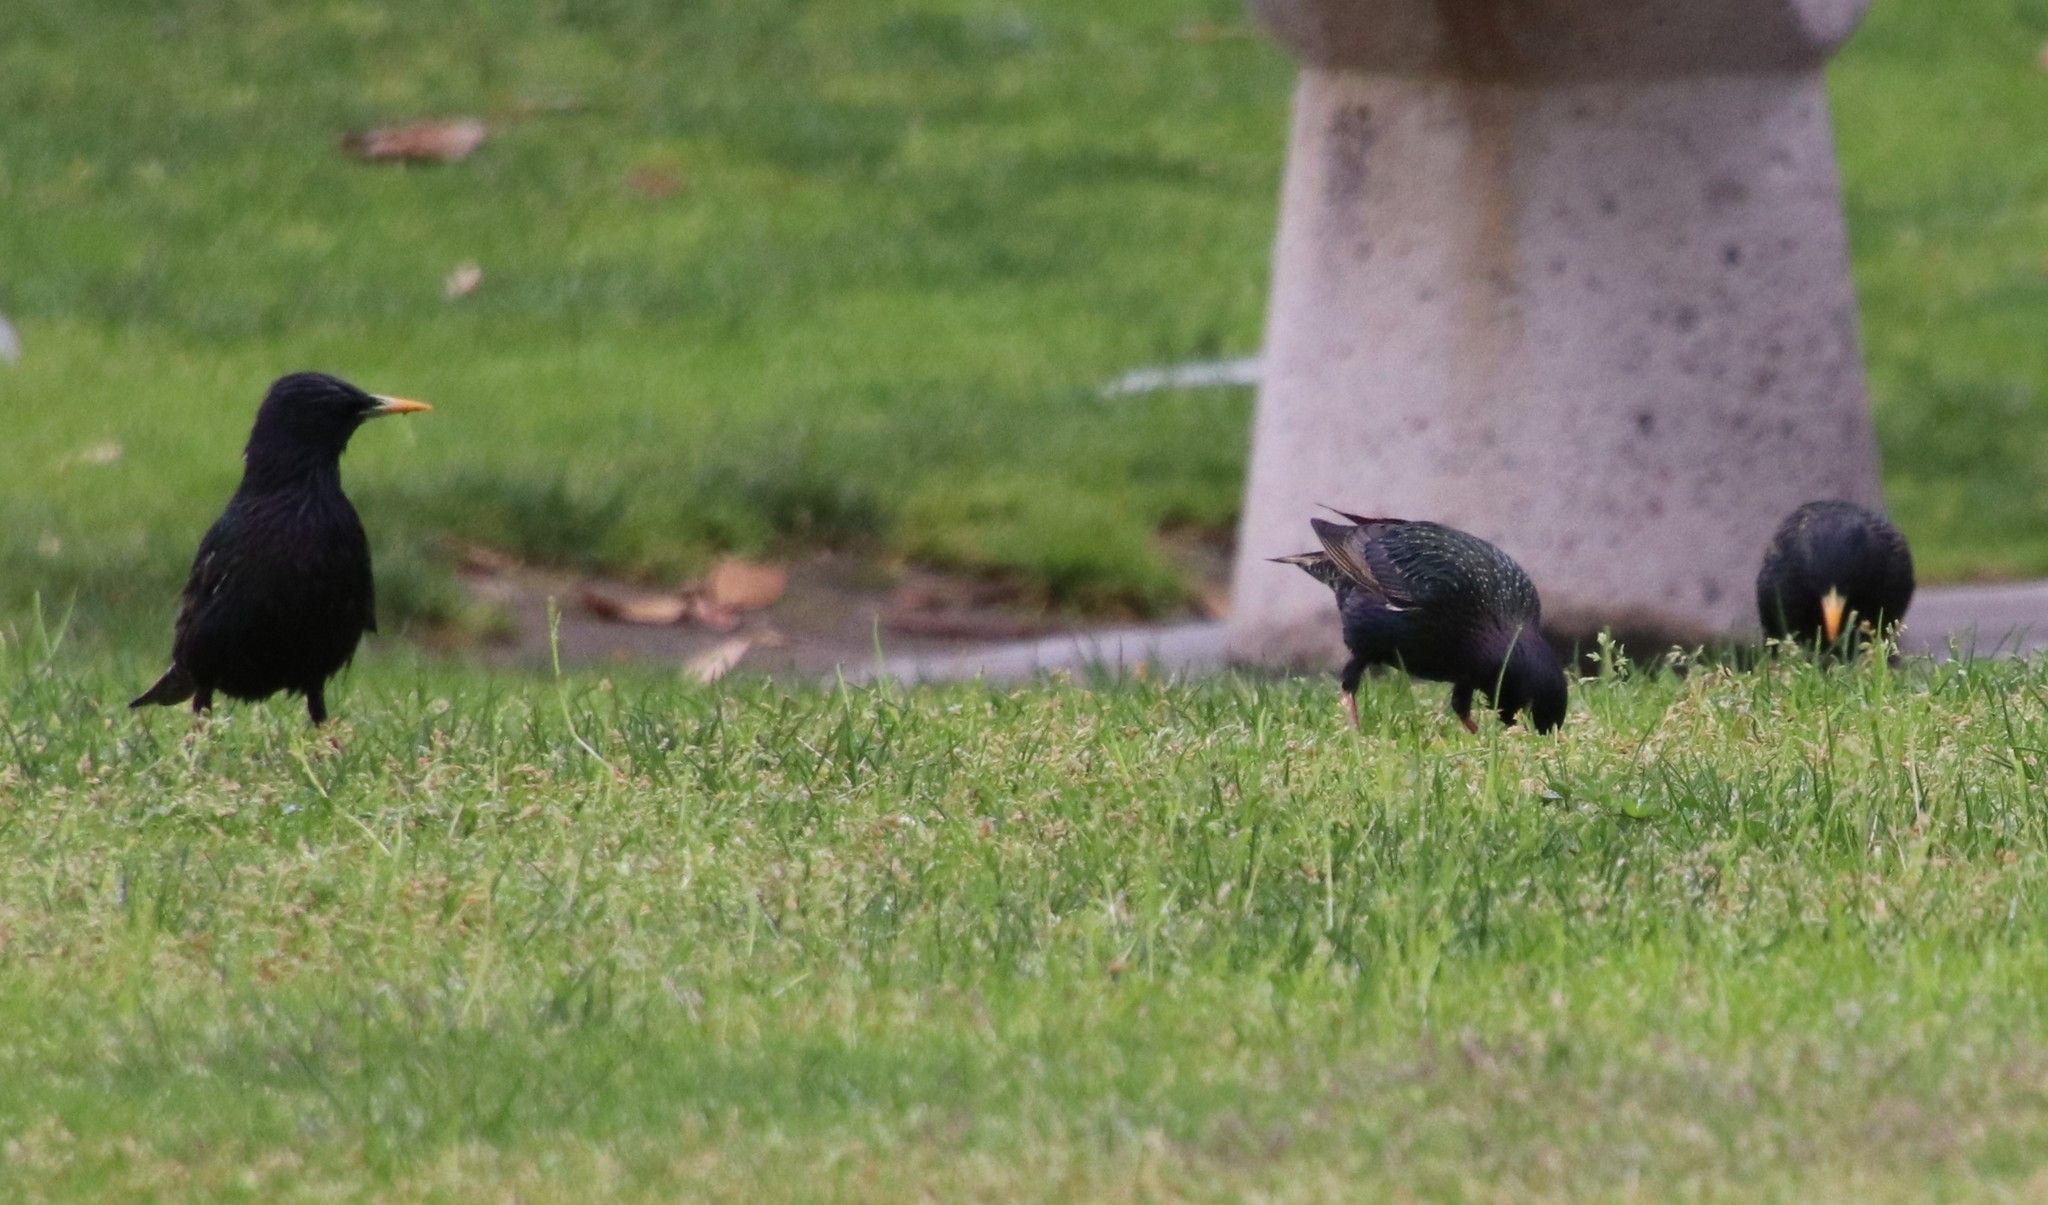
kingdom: Animalia
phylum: Chordata
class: Aves
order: Passeriformes
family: Sturnidae
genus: Sturnus
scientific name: Sturnus vulgaris
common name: Common starling
